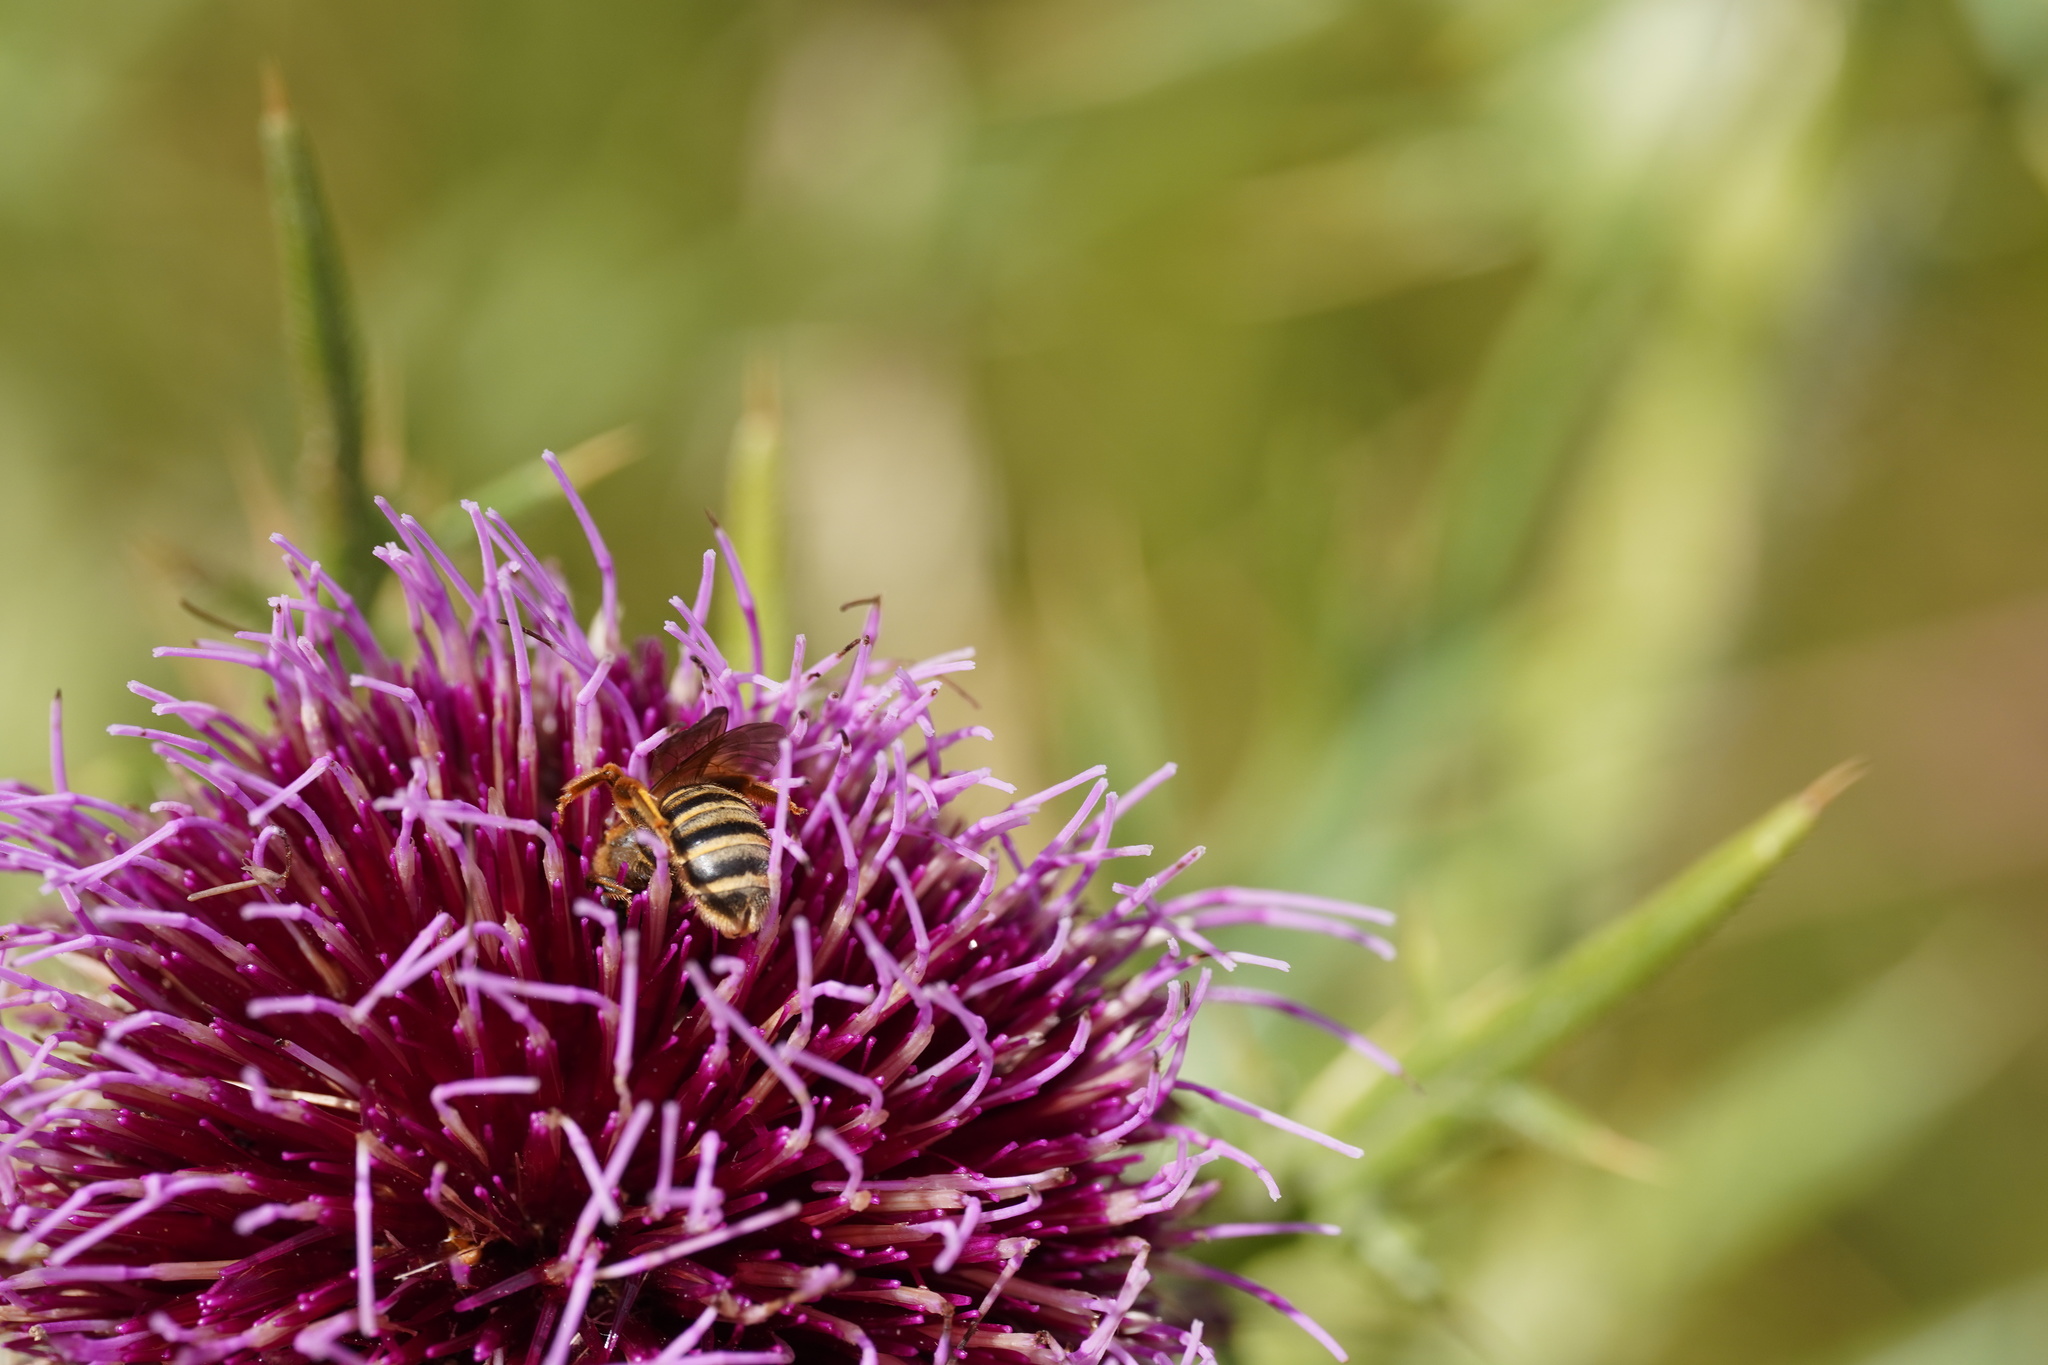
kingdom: Animalia
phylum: Arthropoda
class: Insecta
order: Hymenoptera
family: Halictidae
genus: Halictus
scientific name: Halictus scabiosae
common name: Great banded furrow bee
